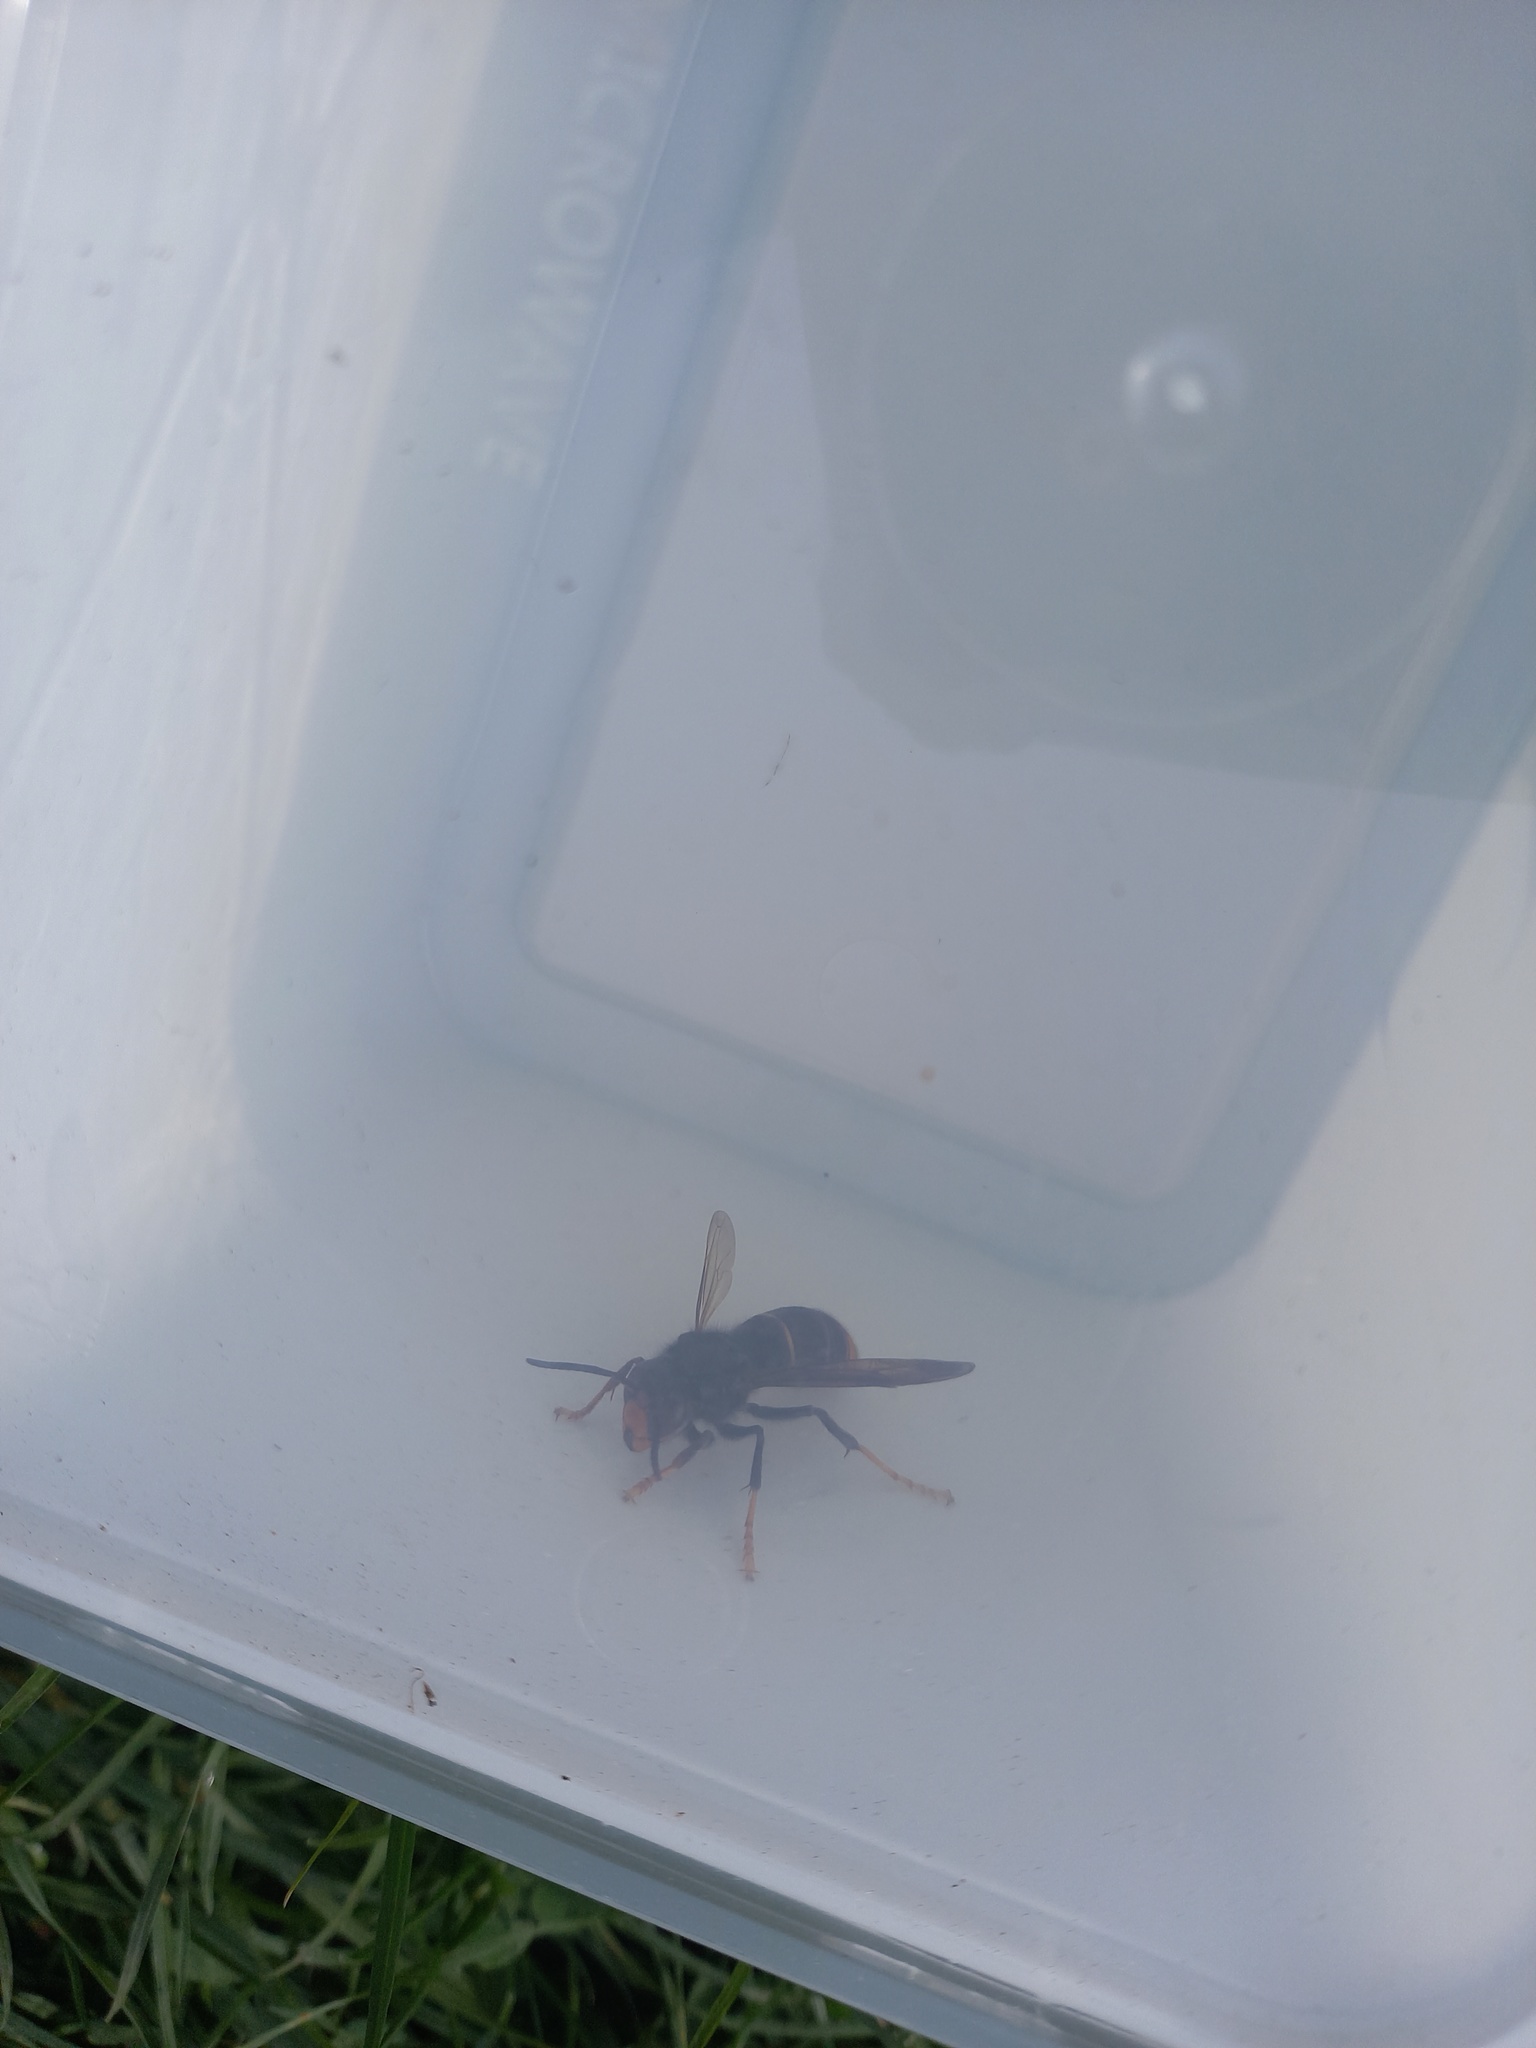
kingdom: Animalia
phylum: Arthropoda
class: Insecta
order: Hymenoptera
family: Vespidae
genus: Vespa
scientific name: Vespa velutina
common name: Asian hornet
